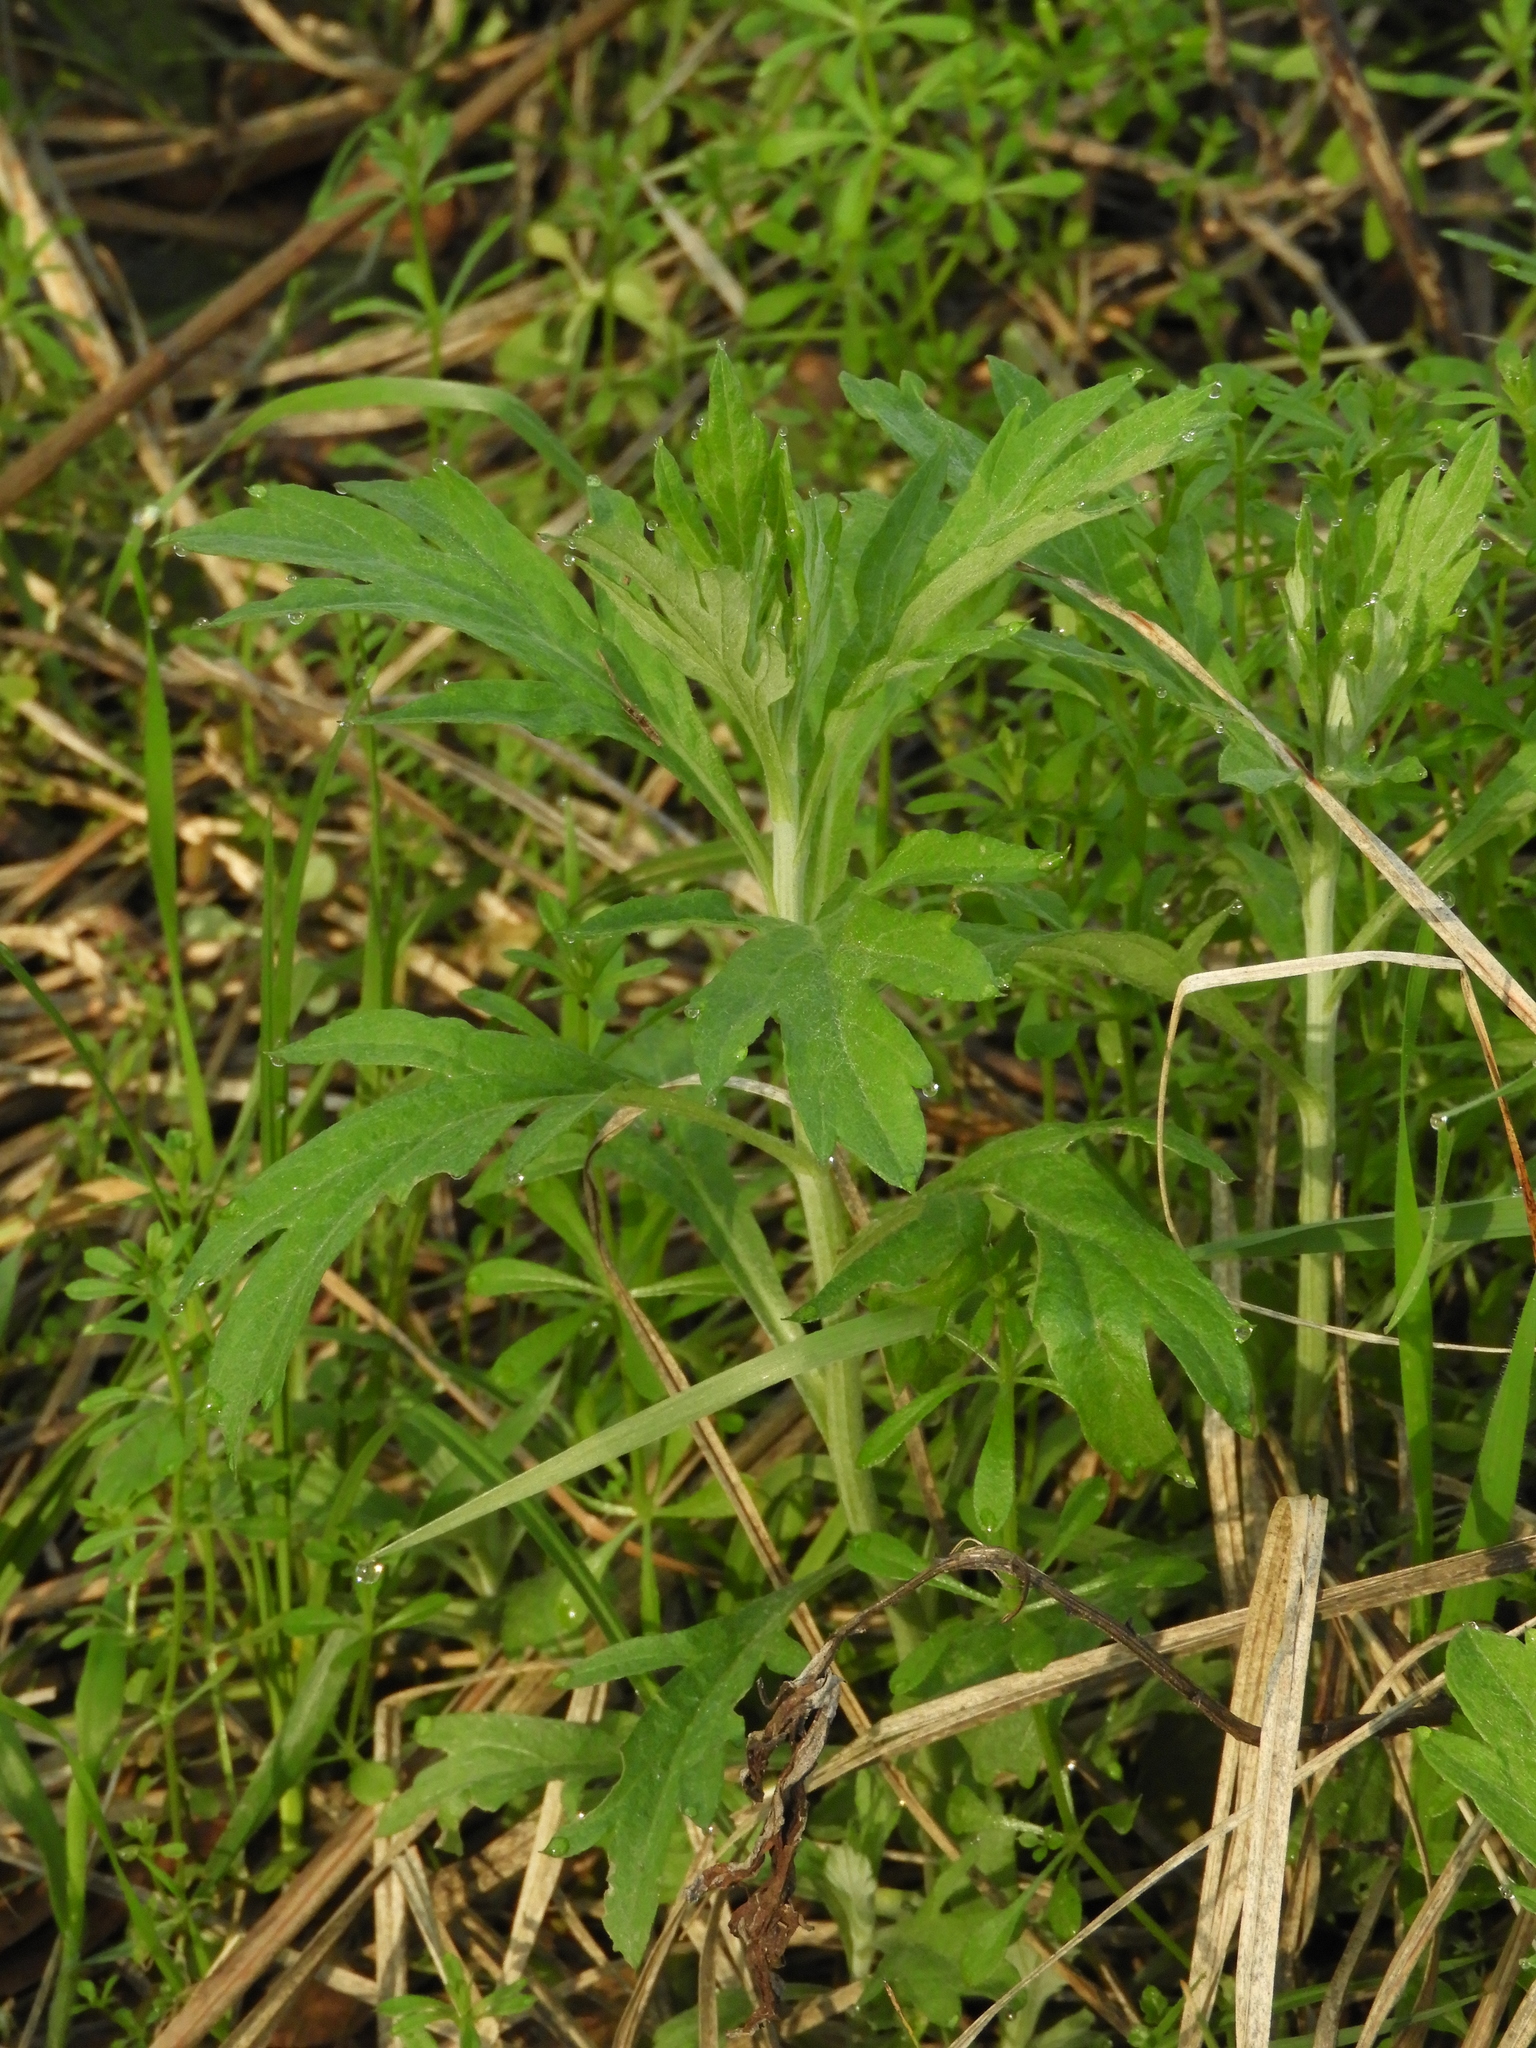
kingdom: Plantae
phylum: Tracheophyta
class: Magnoliopsida
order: Asterales
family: Asteraceae
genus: Artemisia
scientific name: Artemisia douglasiana
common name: Northwest mugwort
